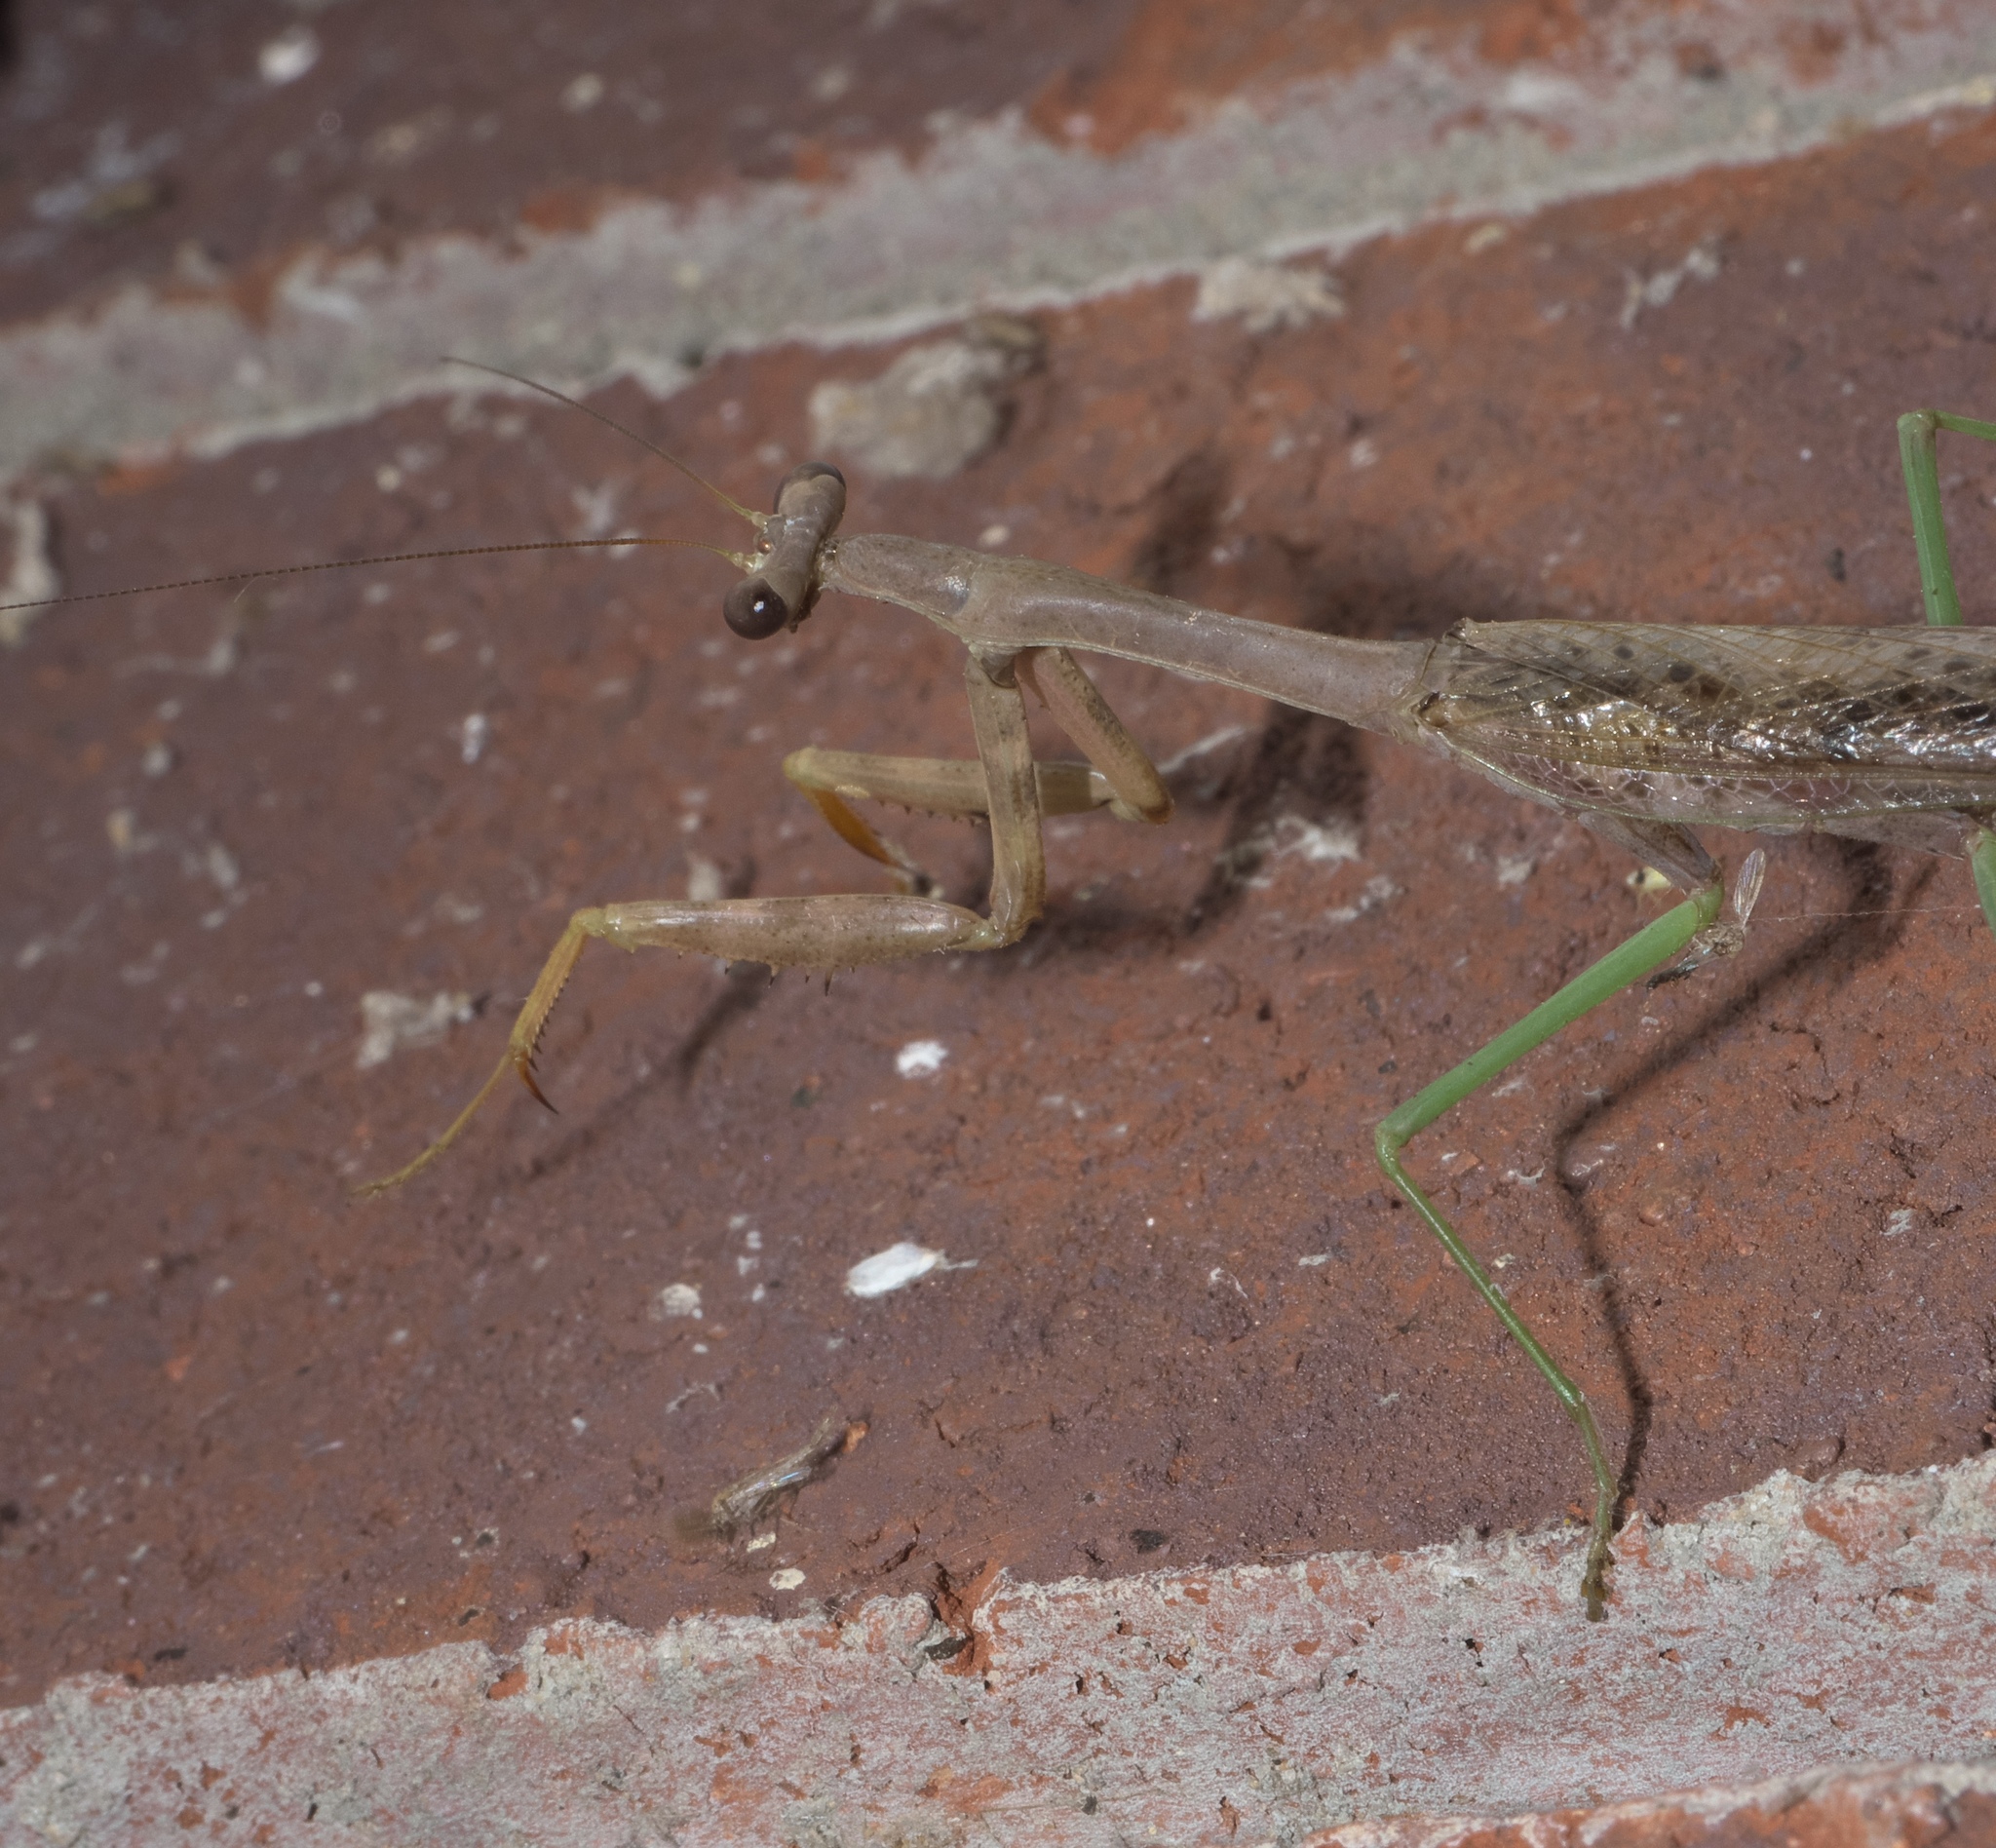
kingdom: Animalia
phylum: Arthropoda
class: Insecta
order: Mantodea
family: Mantidae
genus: Stagmomantis
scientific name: Stagmomantis carolina
